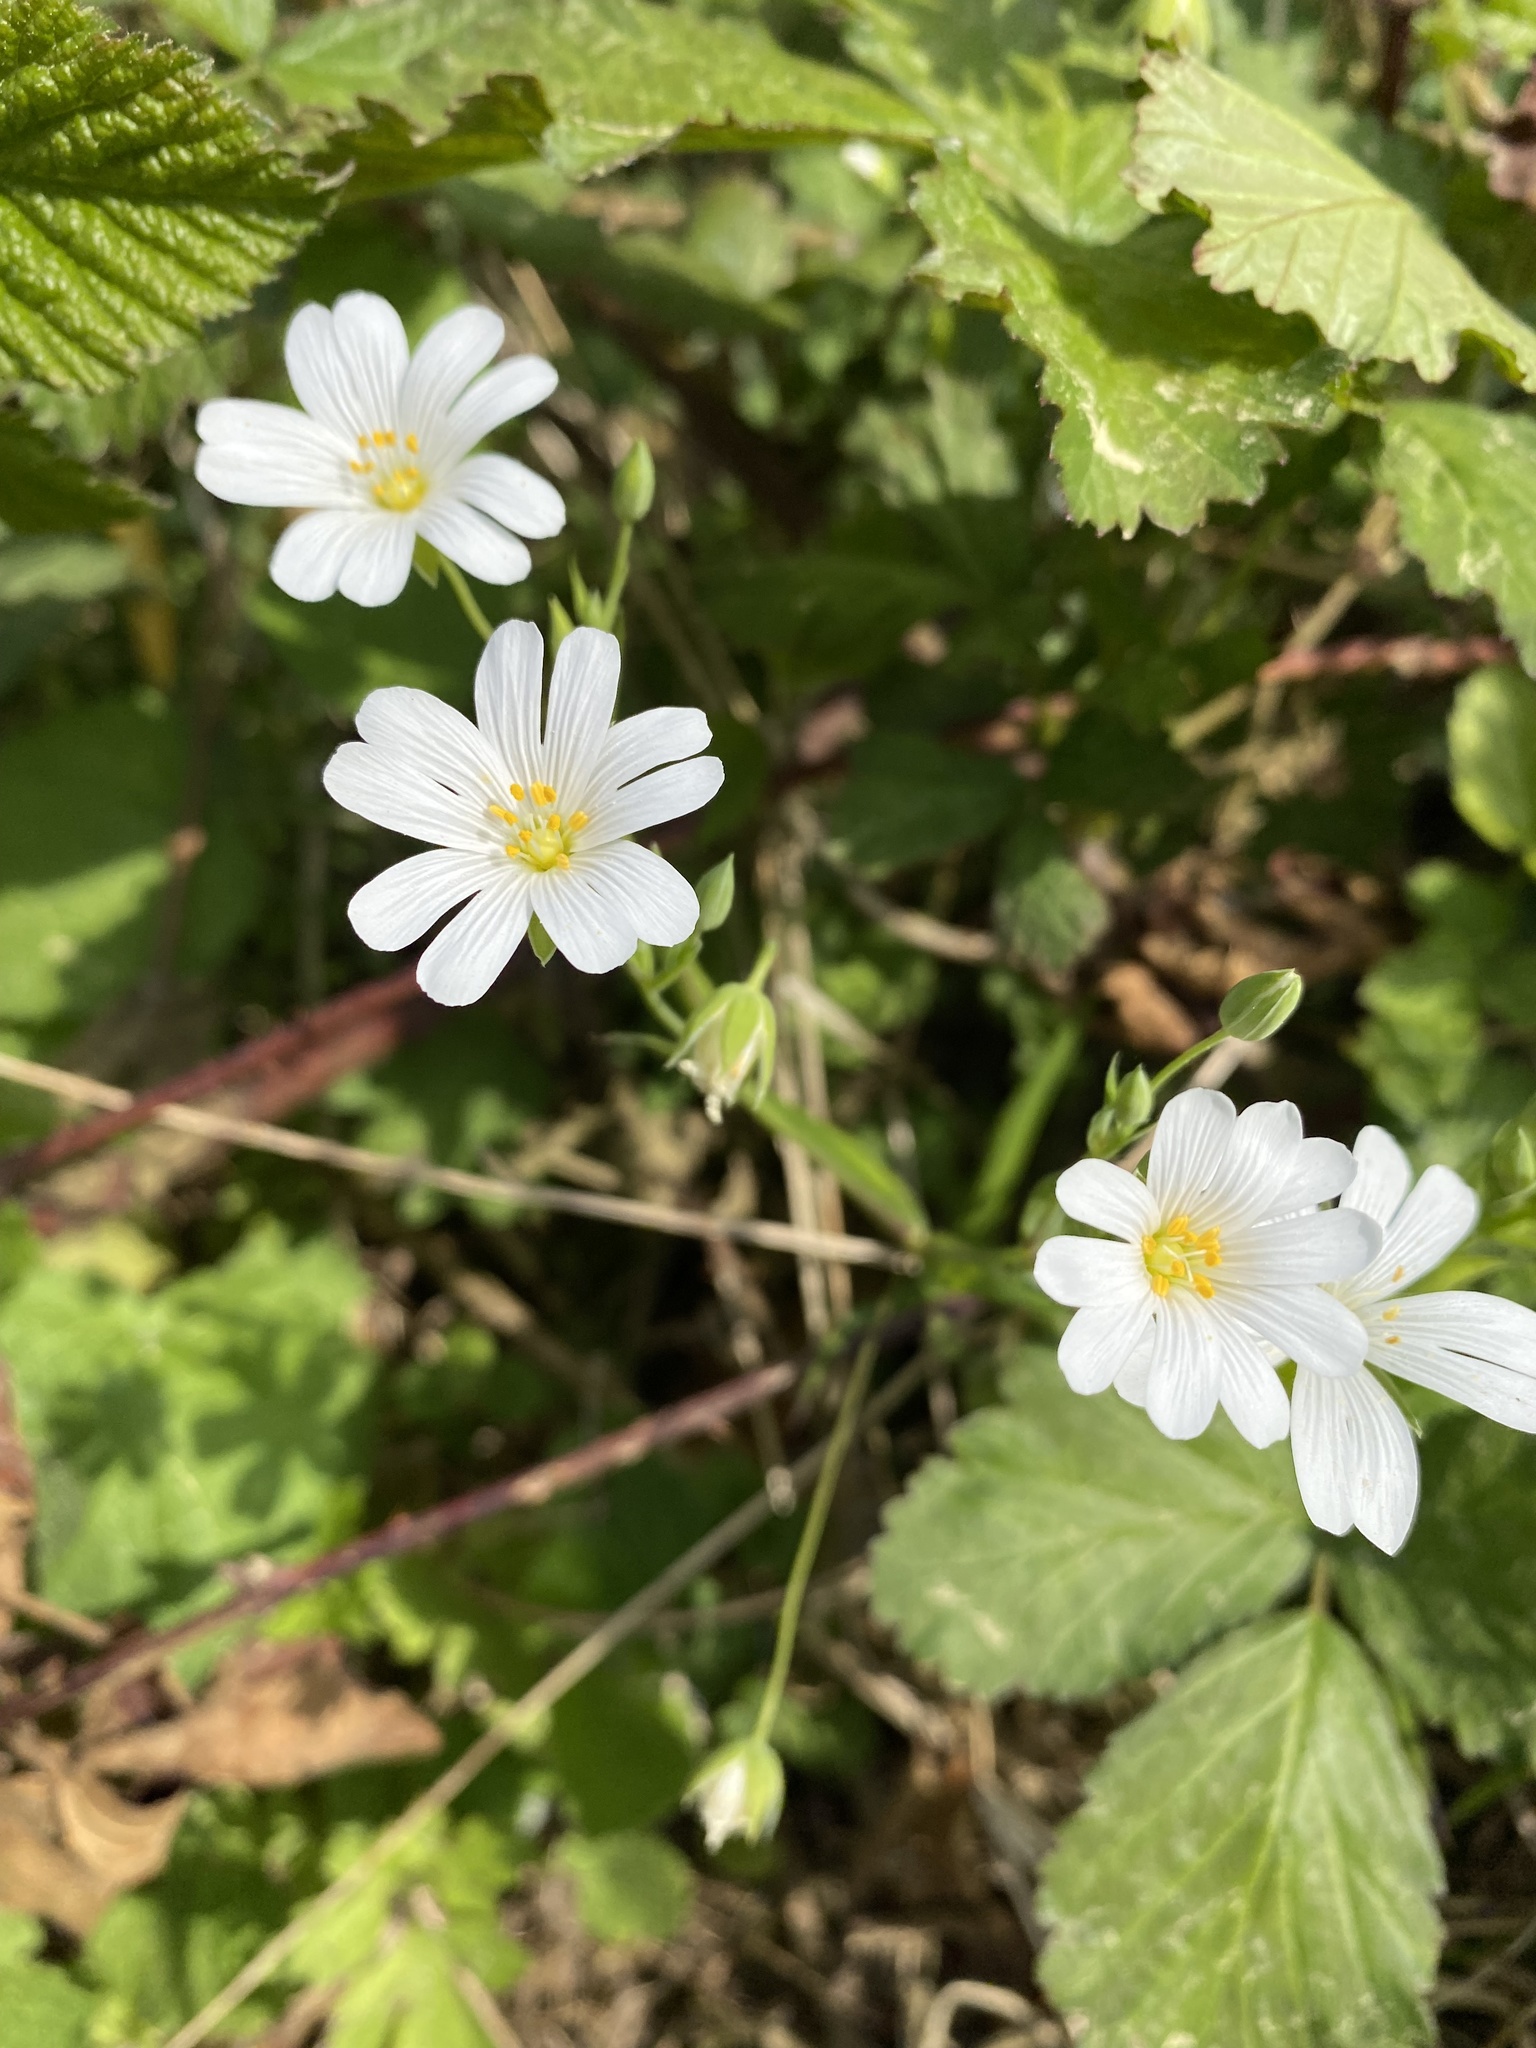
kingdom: Plantae
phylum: Tracheophyta
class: Magnoliopsida
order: Caryophyllales
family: Caryophyllaceae
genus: Rabelera
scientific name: Rabelera holostea
